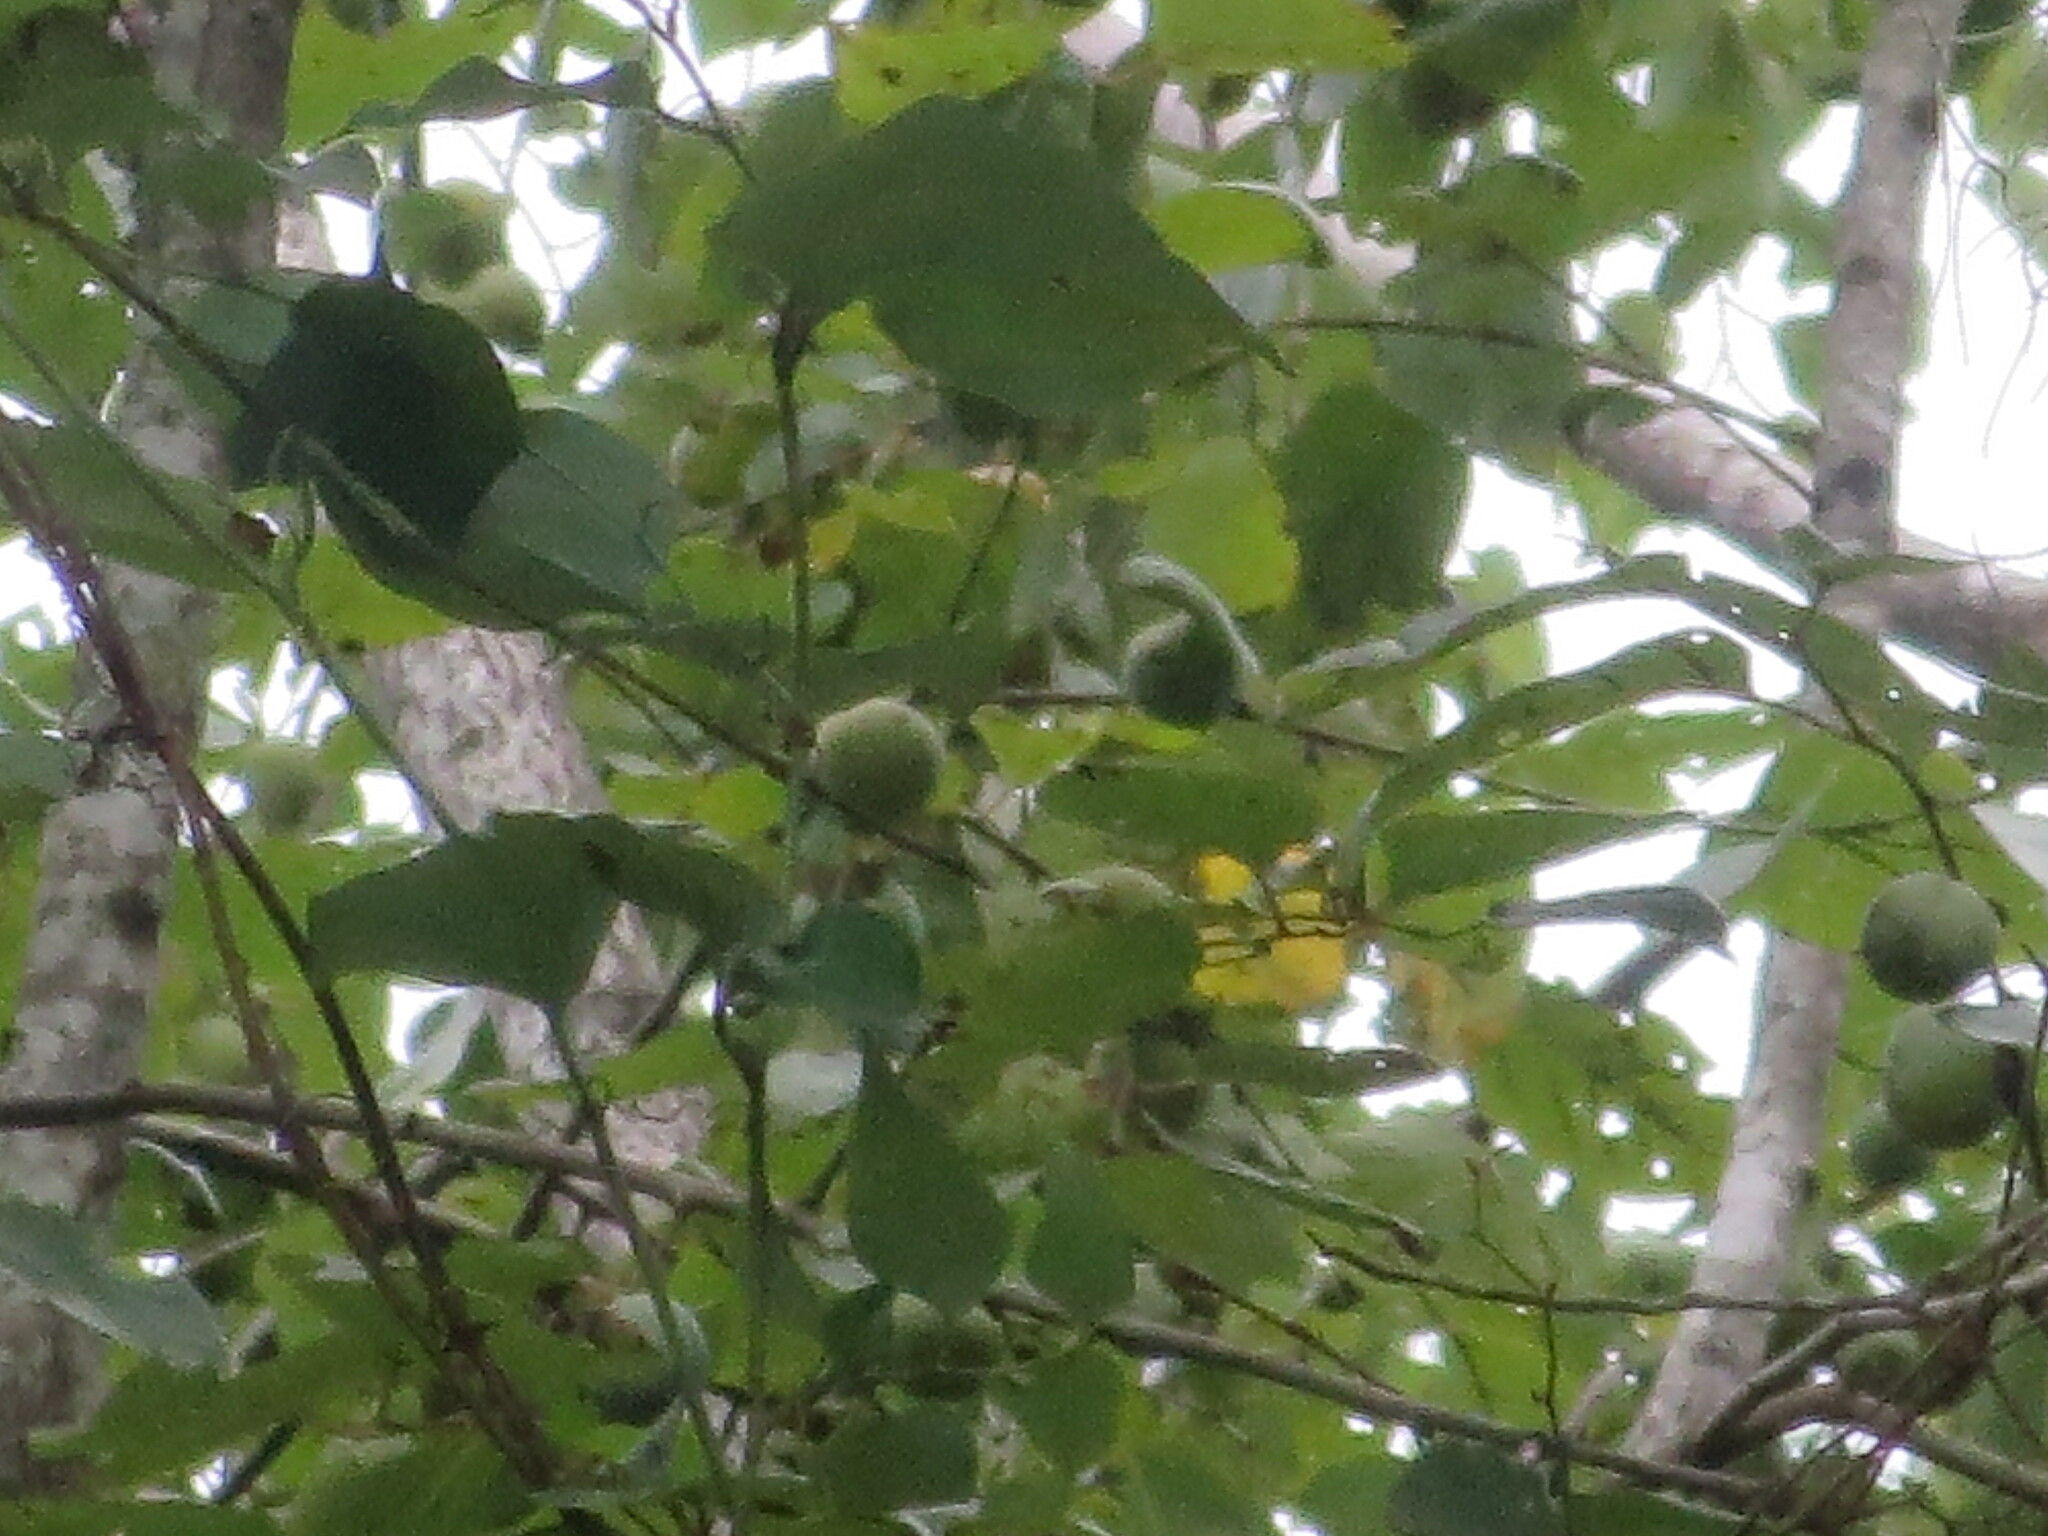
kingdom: Plantae
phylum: Tracheophyta
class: Magnoliopsida
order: Ericales
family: Ebenaceae
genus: Diospyros
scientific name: Diospyros virginiana
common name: Persimmon
